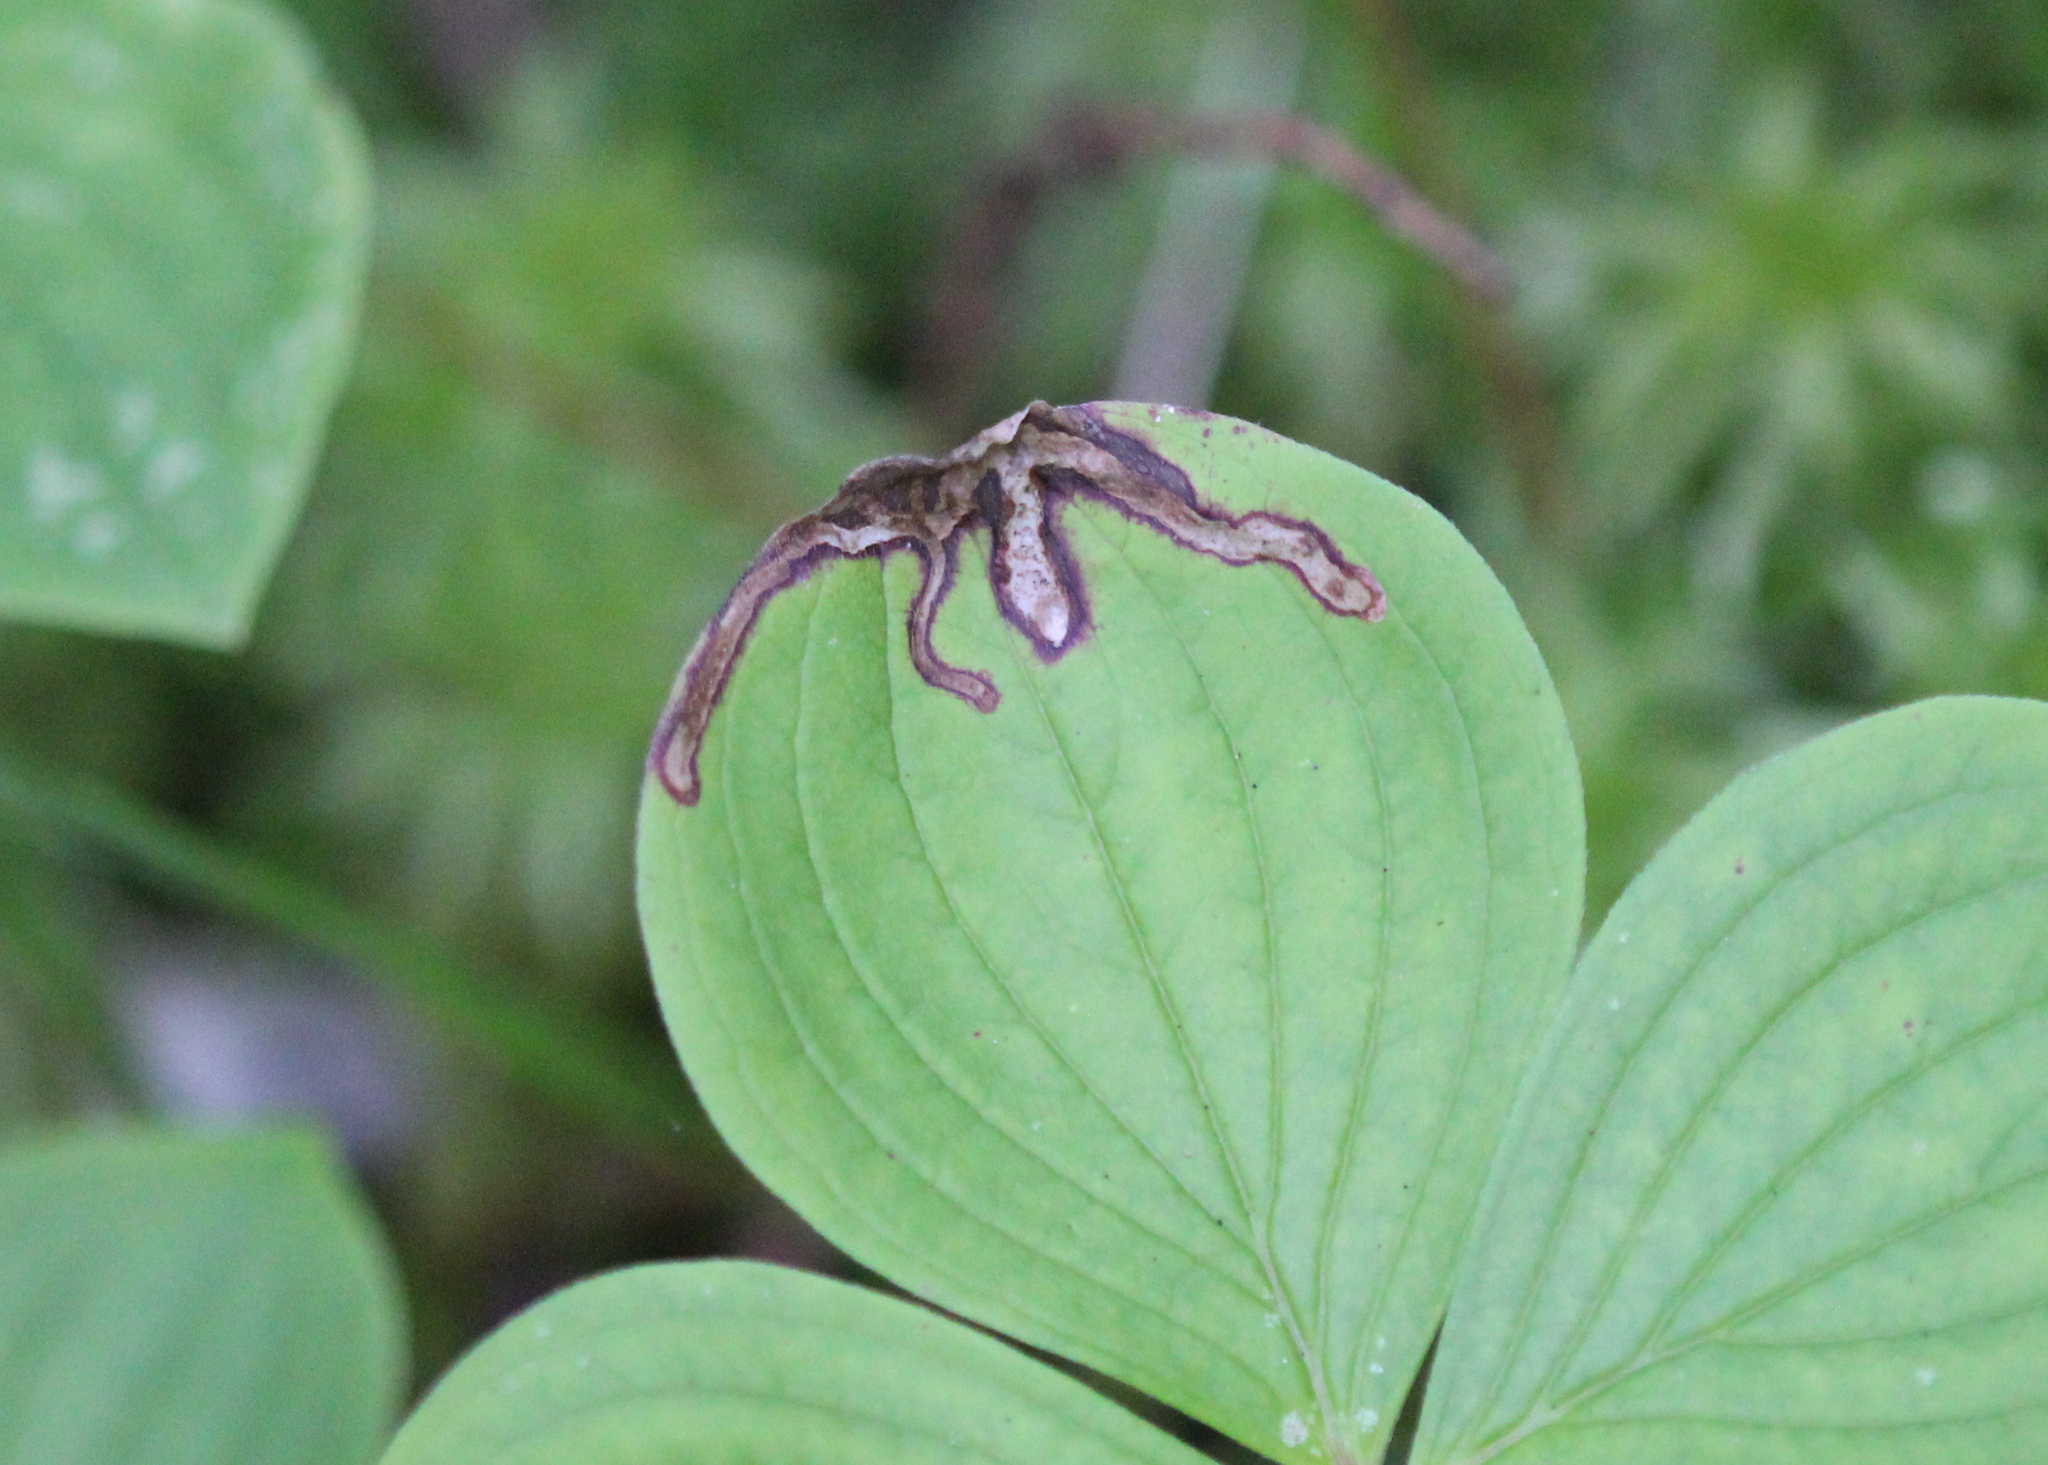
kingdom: Animalia
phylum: Arthropoda
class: Insecta
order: Diptera
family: Agromyzidae
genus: Phytomyza
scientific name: Phytomyza agromyzina
